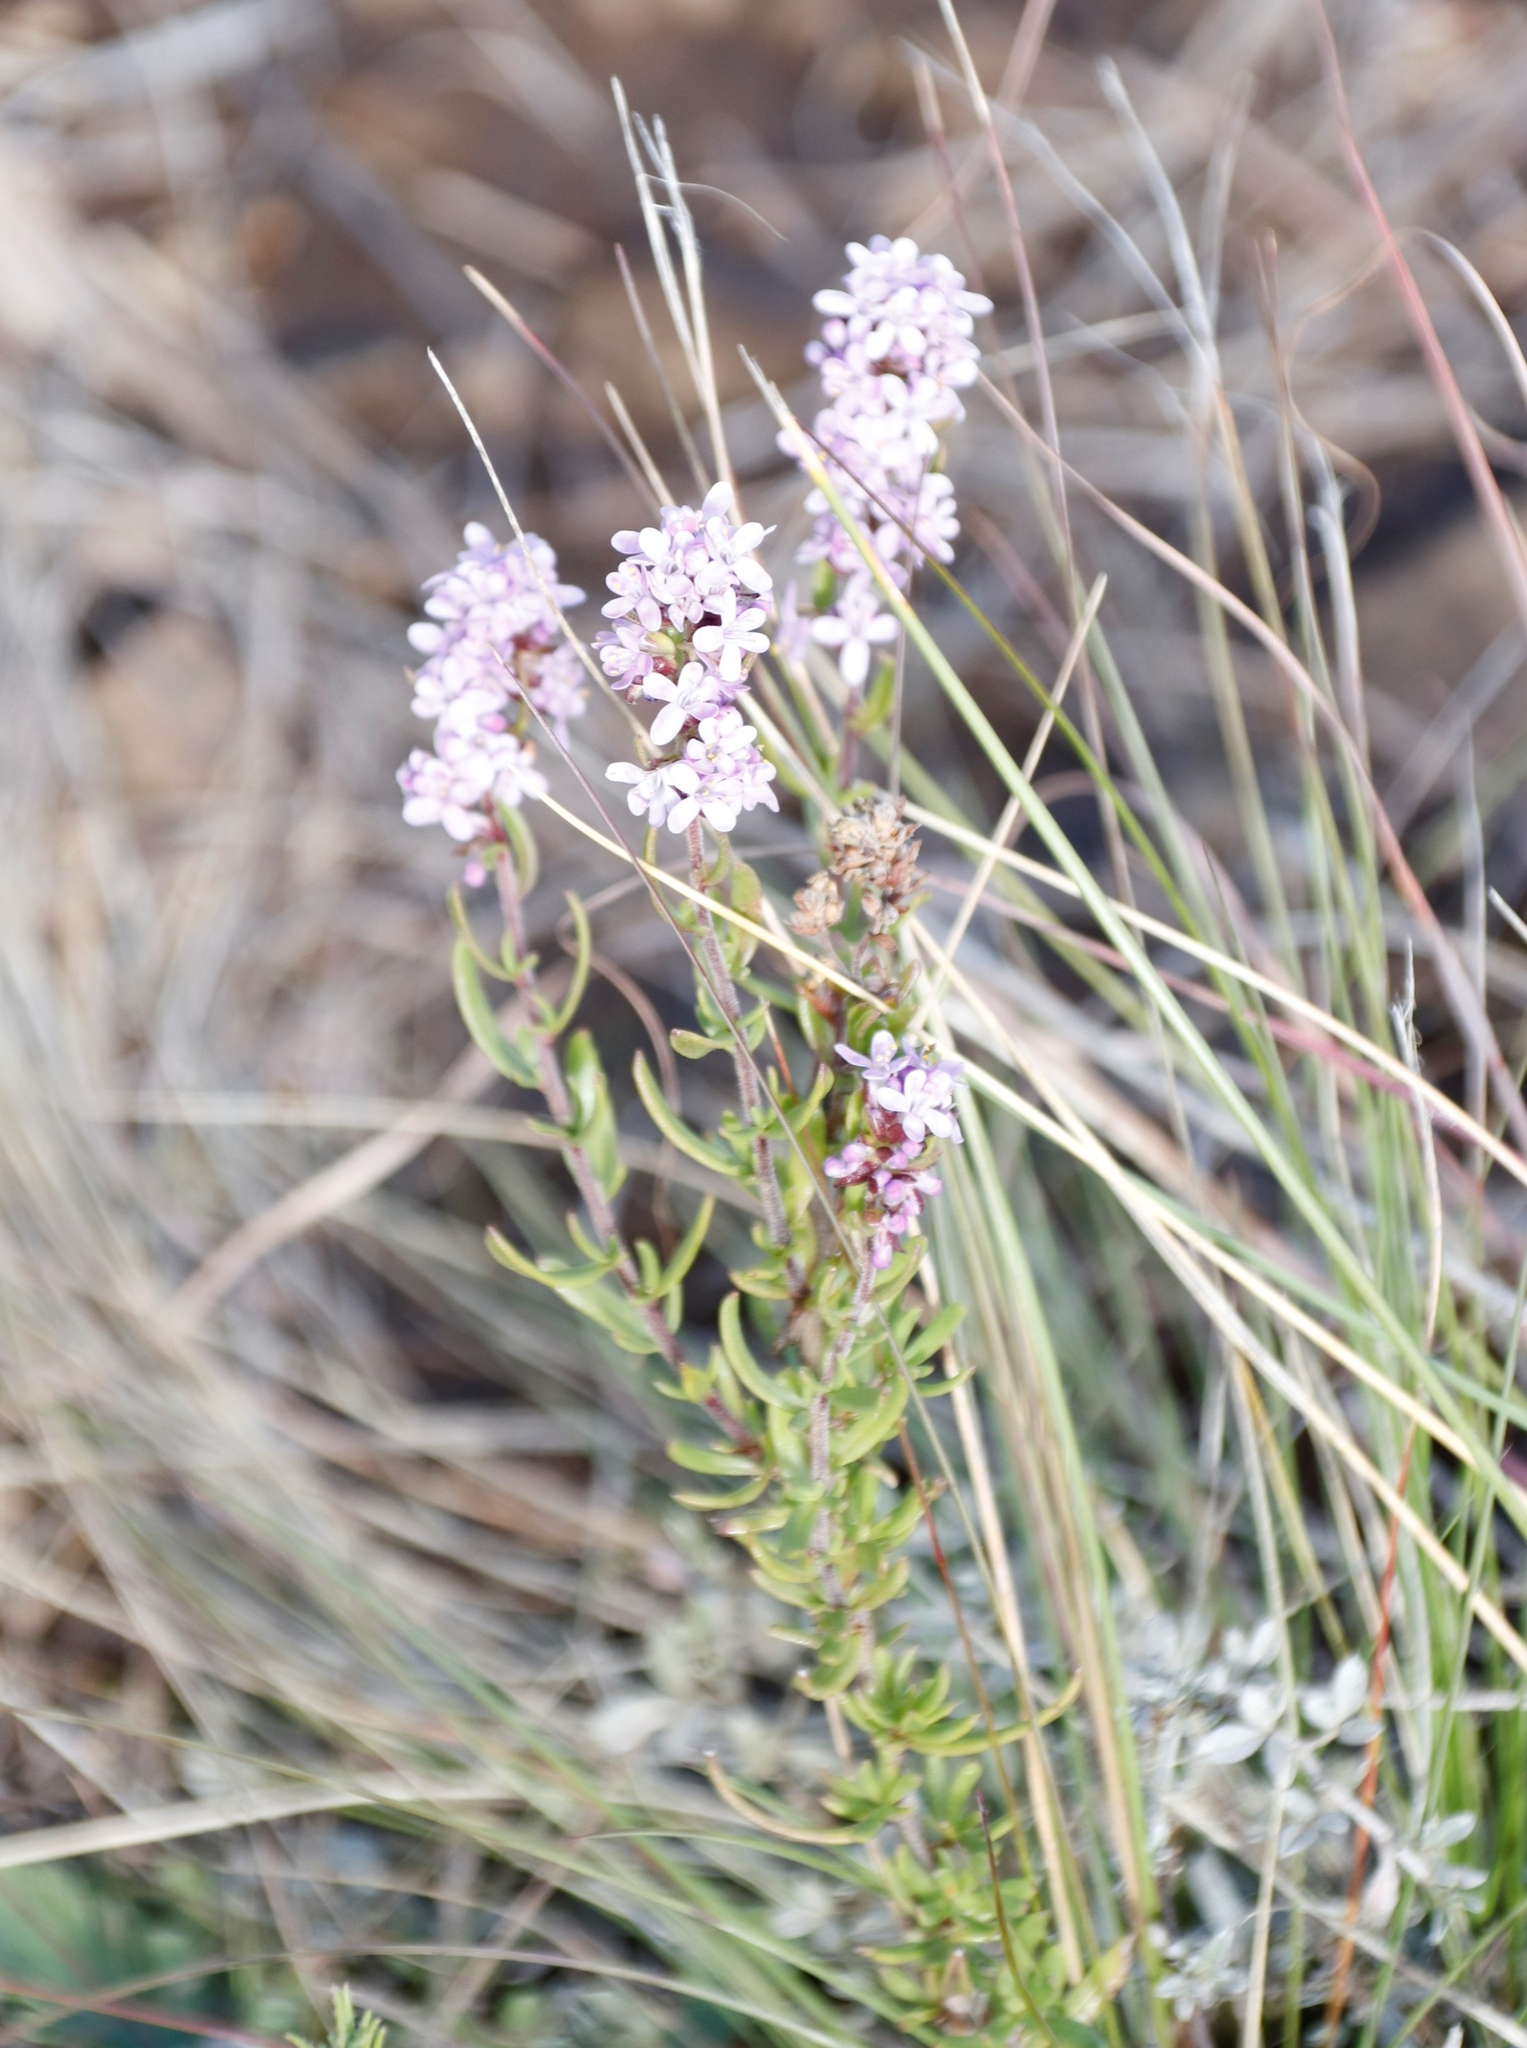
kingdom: Plantae
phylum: Tracheophyta
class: Magnoliopsida
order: Lamiales
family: Scrophulariaceae
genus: Selago
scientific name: Selago flanaganii
